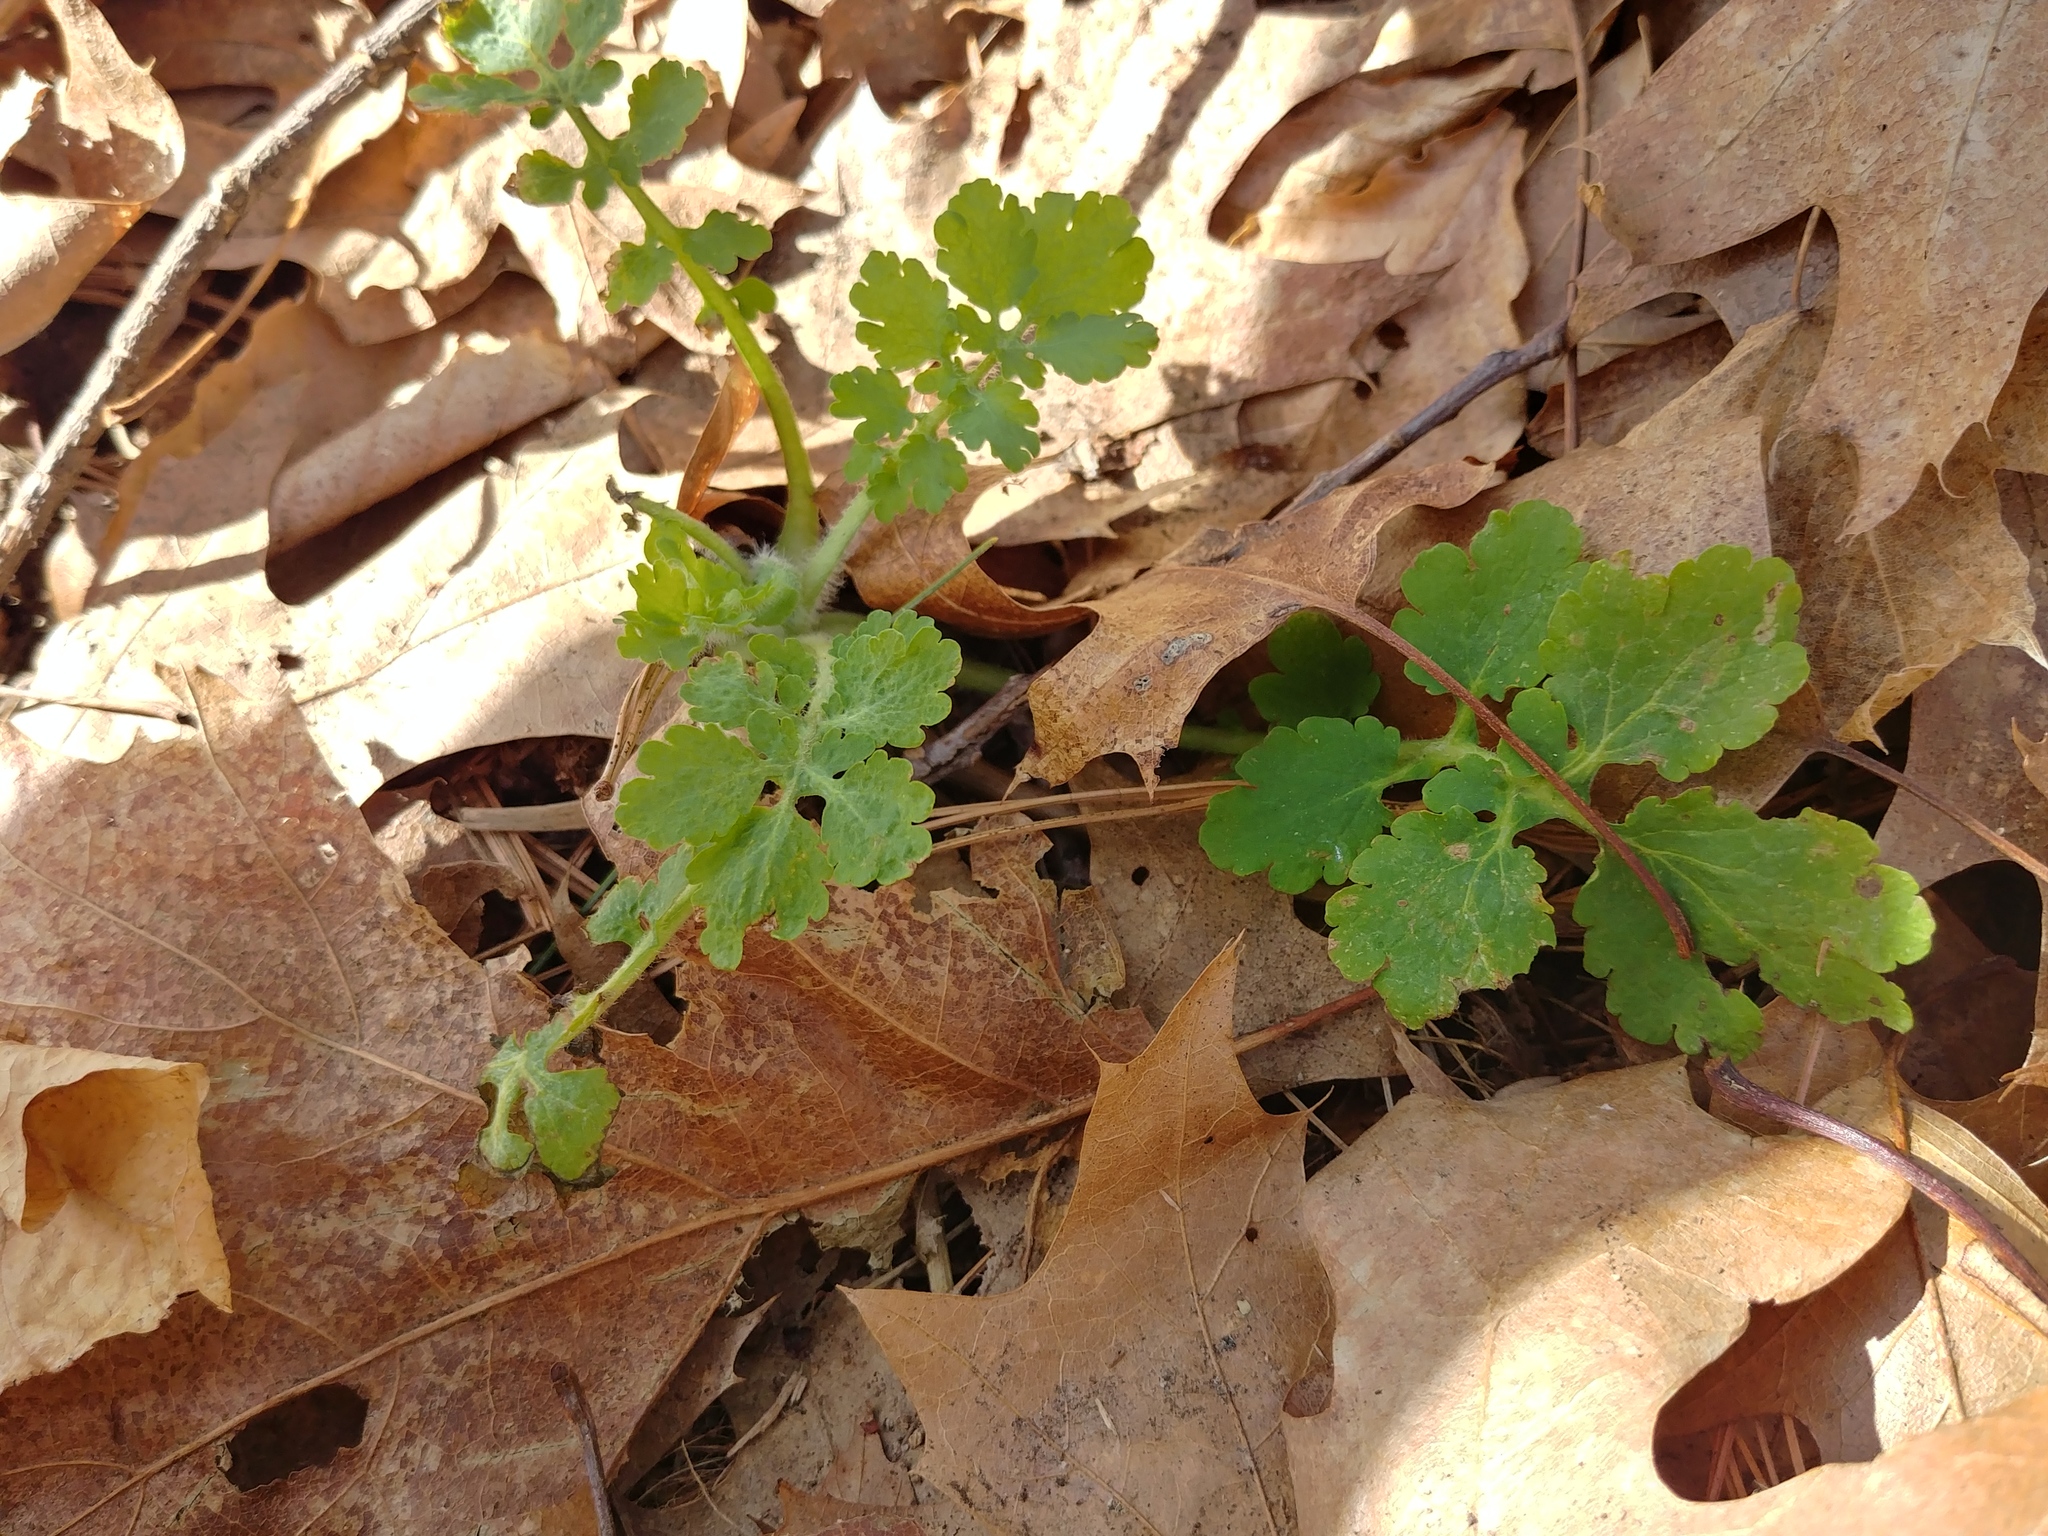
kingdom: Plantae
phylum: Tracheophyta
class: Magnoliopsida
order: Ranunculales
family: Papaveraceae
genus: Chelidonium
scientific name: Chelidonium majus
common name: Greater celandine
